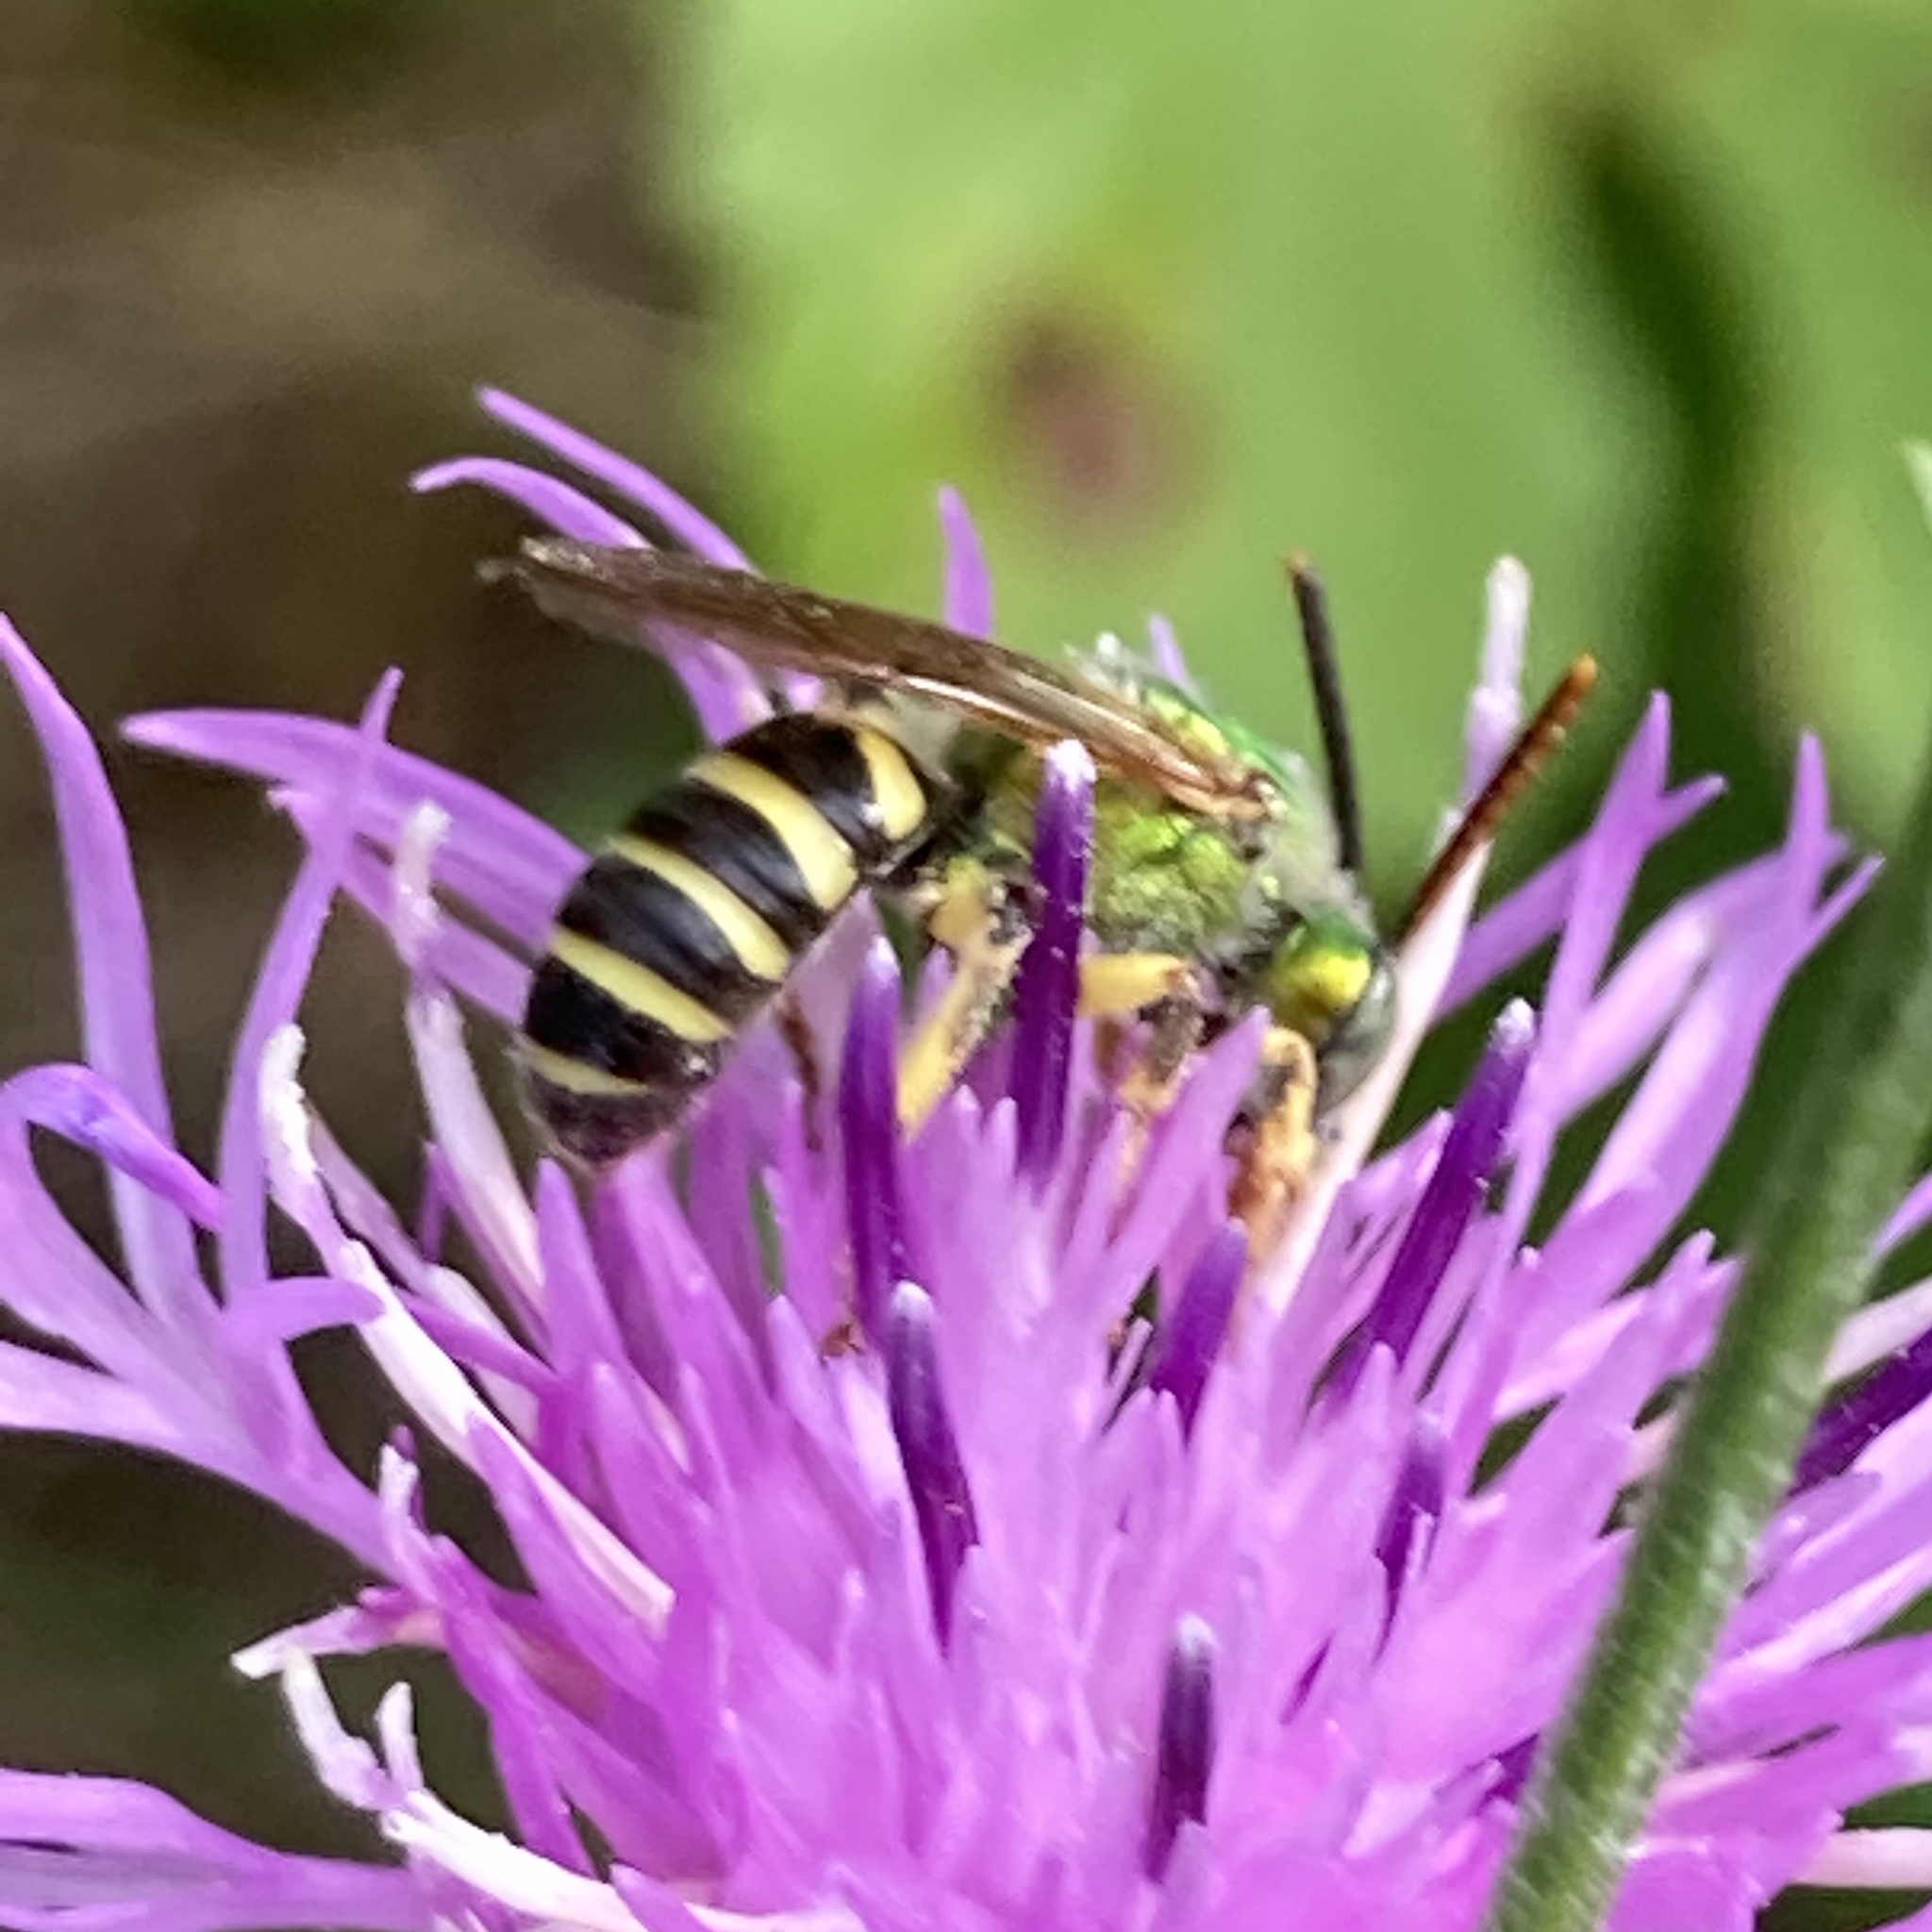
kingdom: Animalia
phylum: Arthropoda
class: Insecta
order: Hymenoptera
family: Halictidae
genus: Agapostemon
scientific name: Agapostemon virescens
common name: Bicolored striped sweat bee
